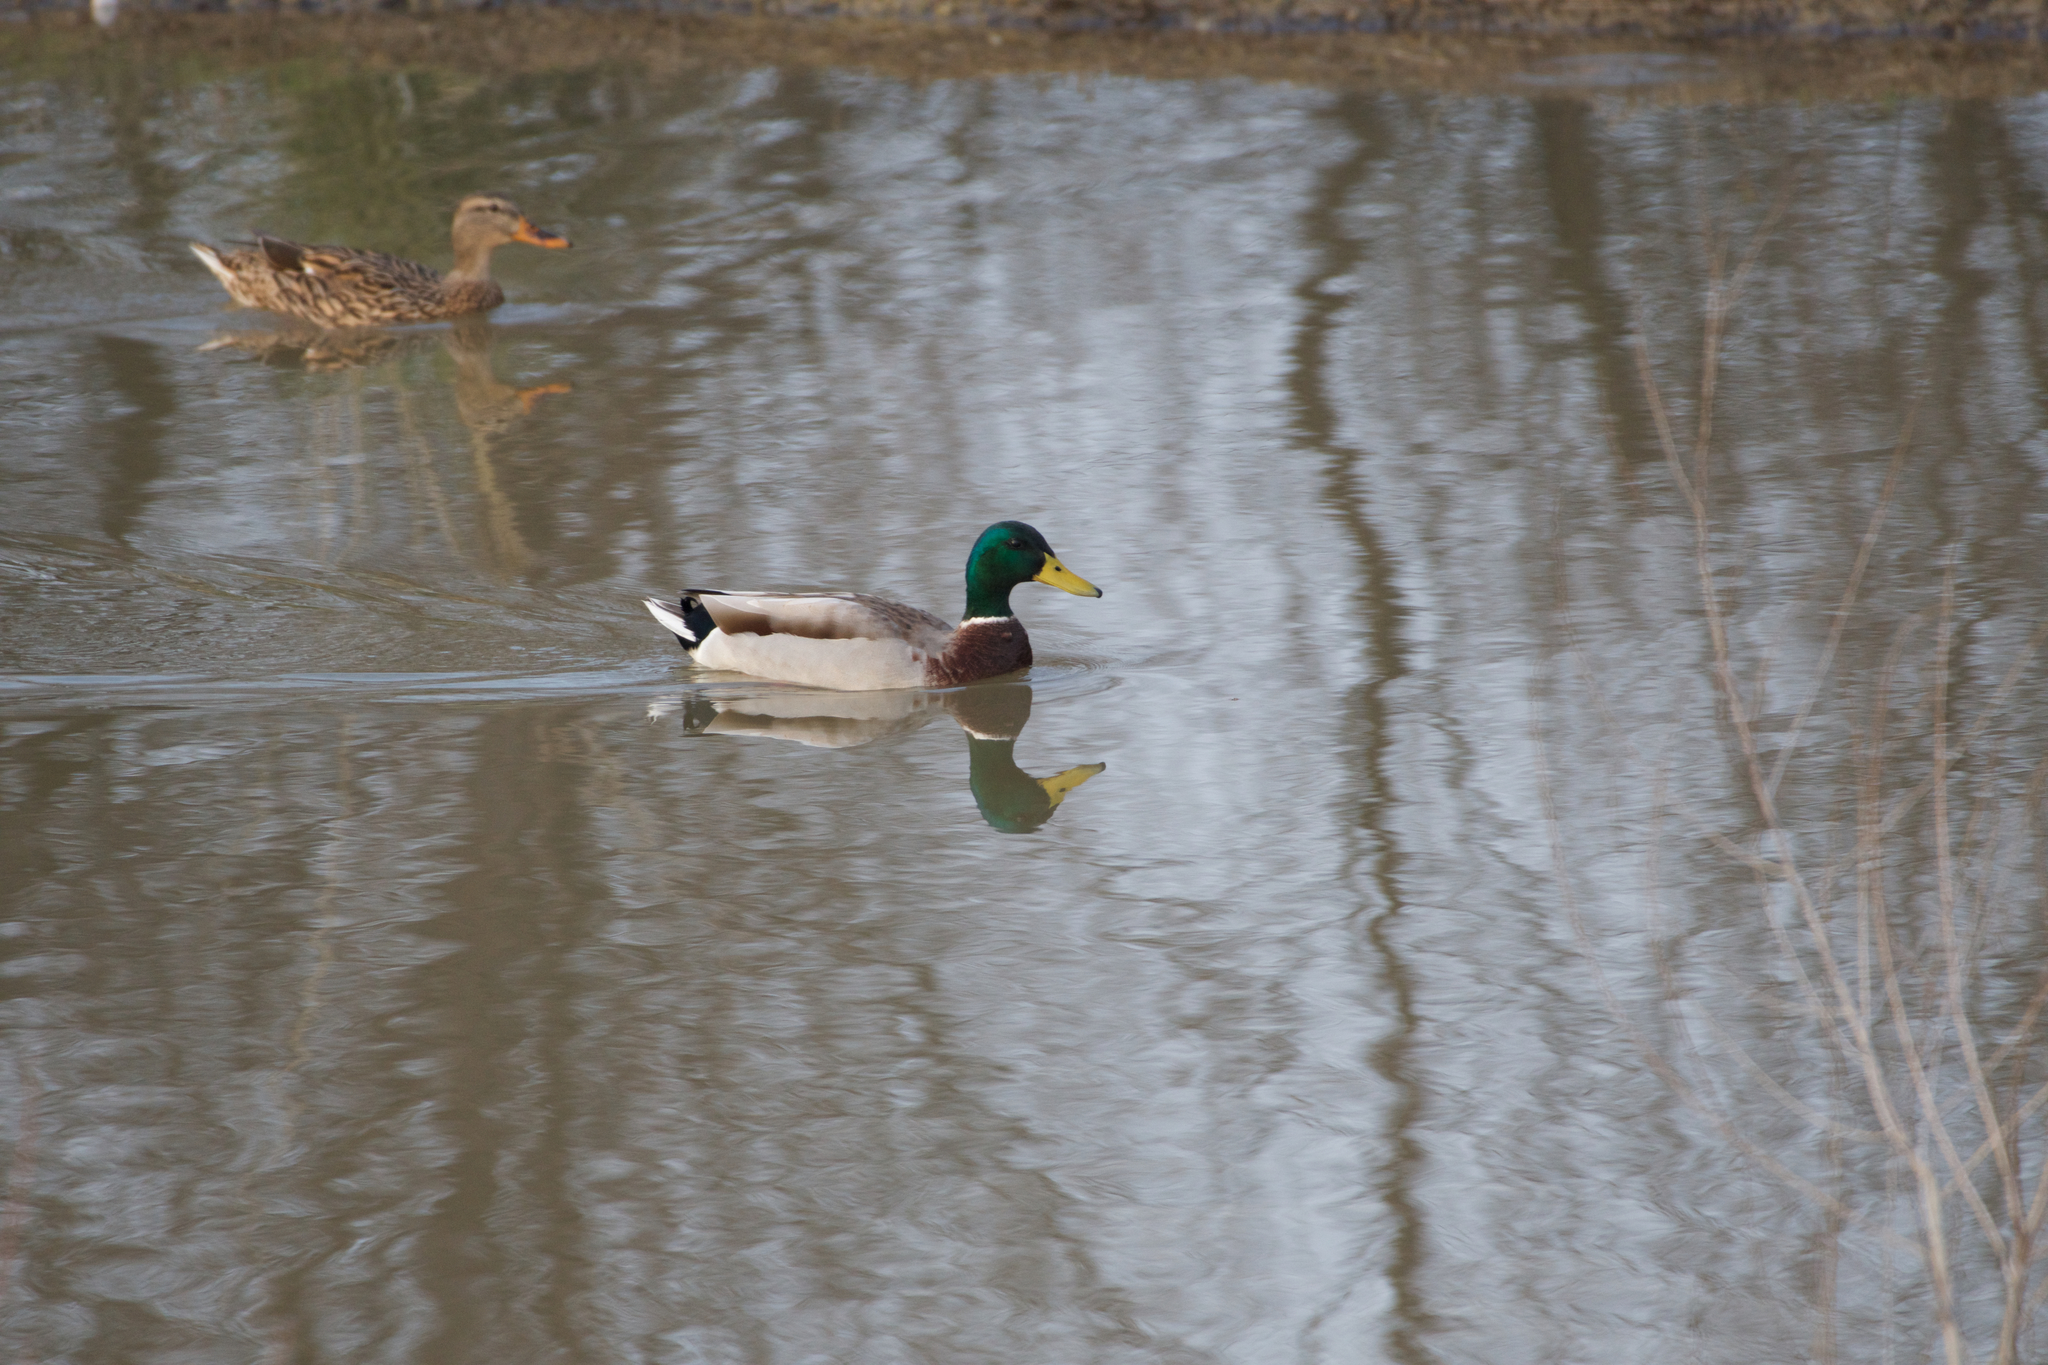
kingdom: Animalia
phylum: Chordata
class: Aves
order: Anseriformes
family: Anatidae
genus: Anas
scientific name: Anas platyrhynchos
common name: Mallard
